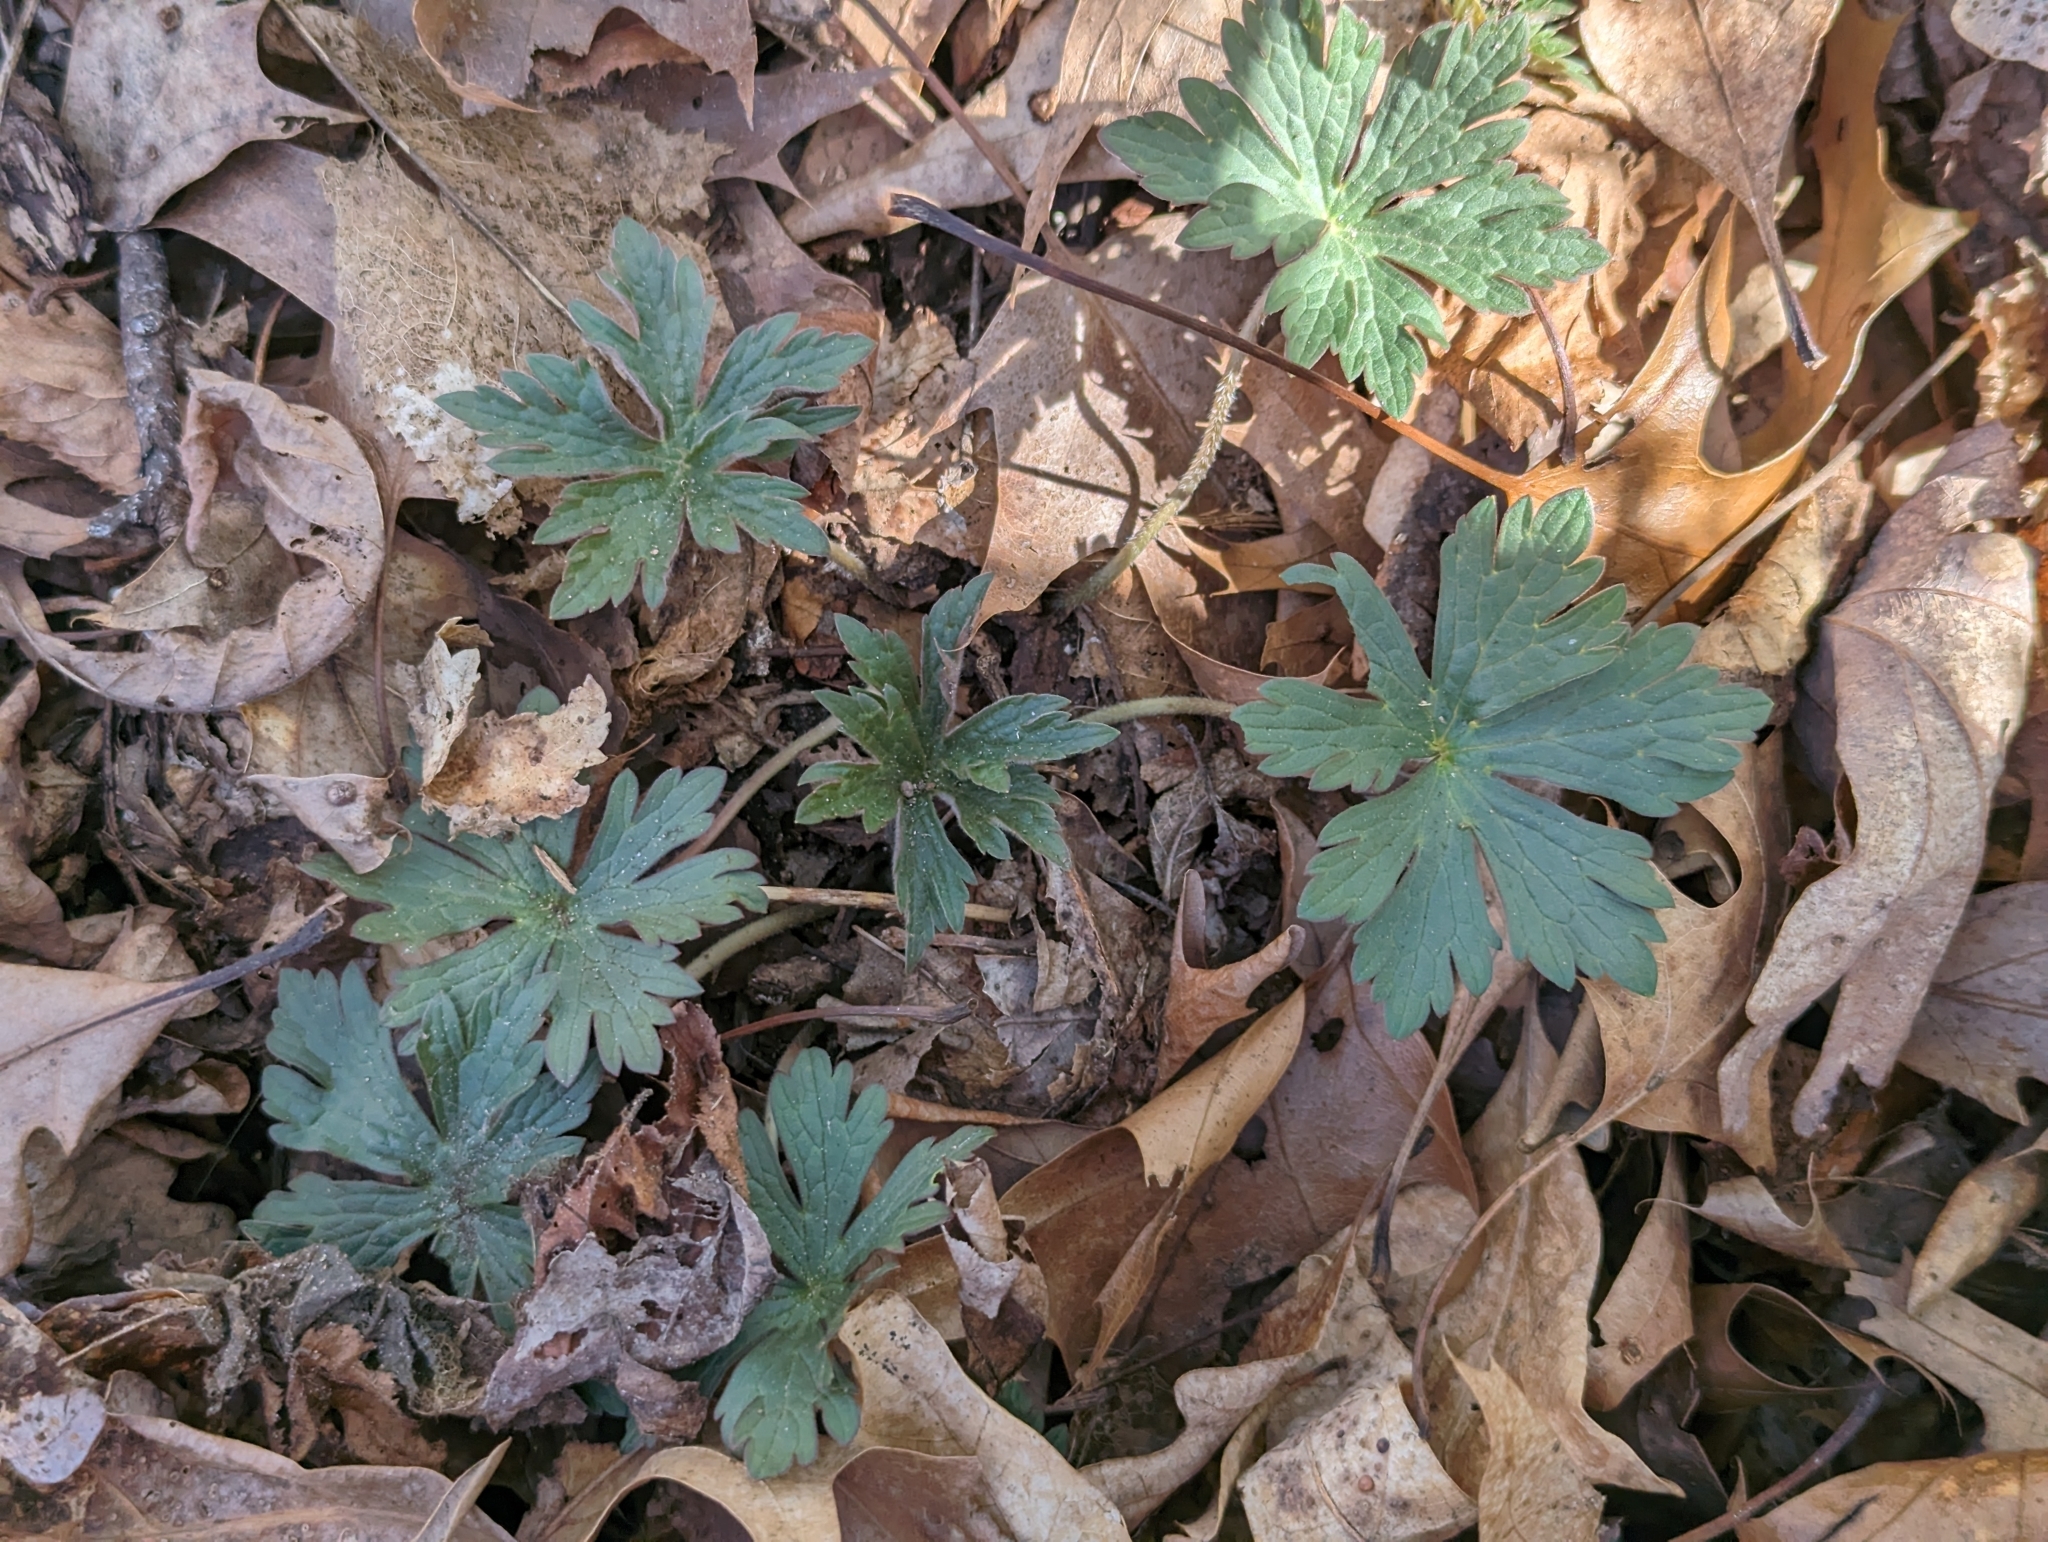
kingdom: Plantae
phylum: Tracheophyta
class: Magnoliopsida
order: Geraniales
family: Geraniaceae
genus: Geranium
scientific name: Geranium maculatum
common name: Spotted geranium
